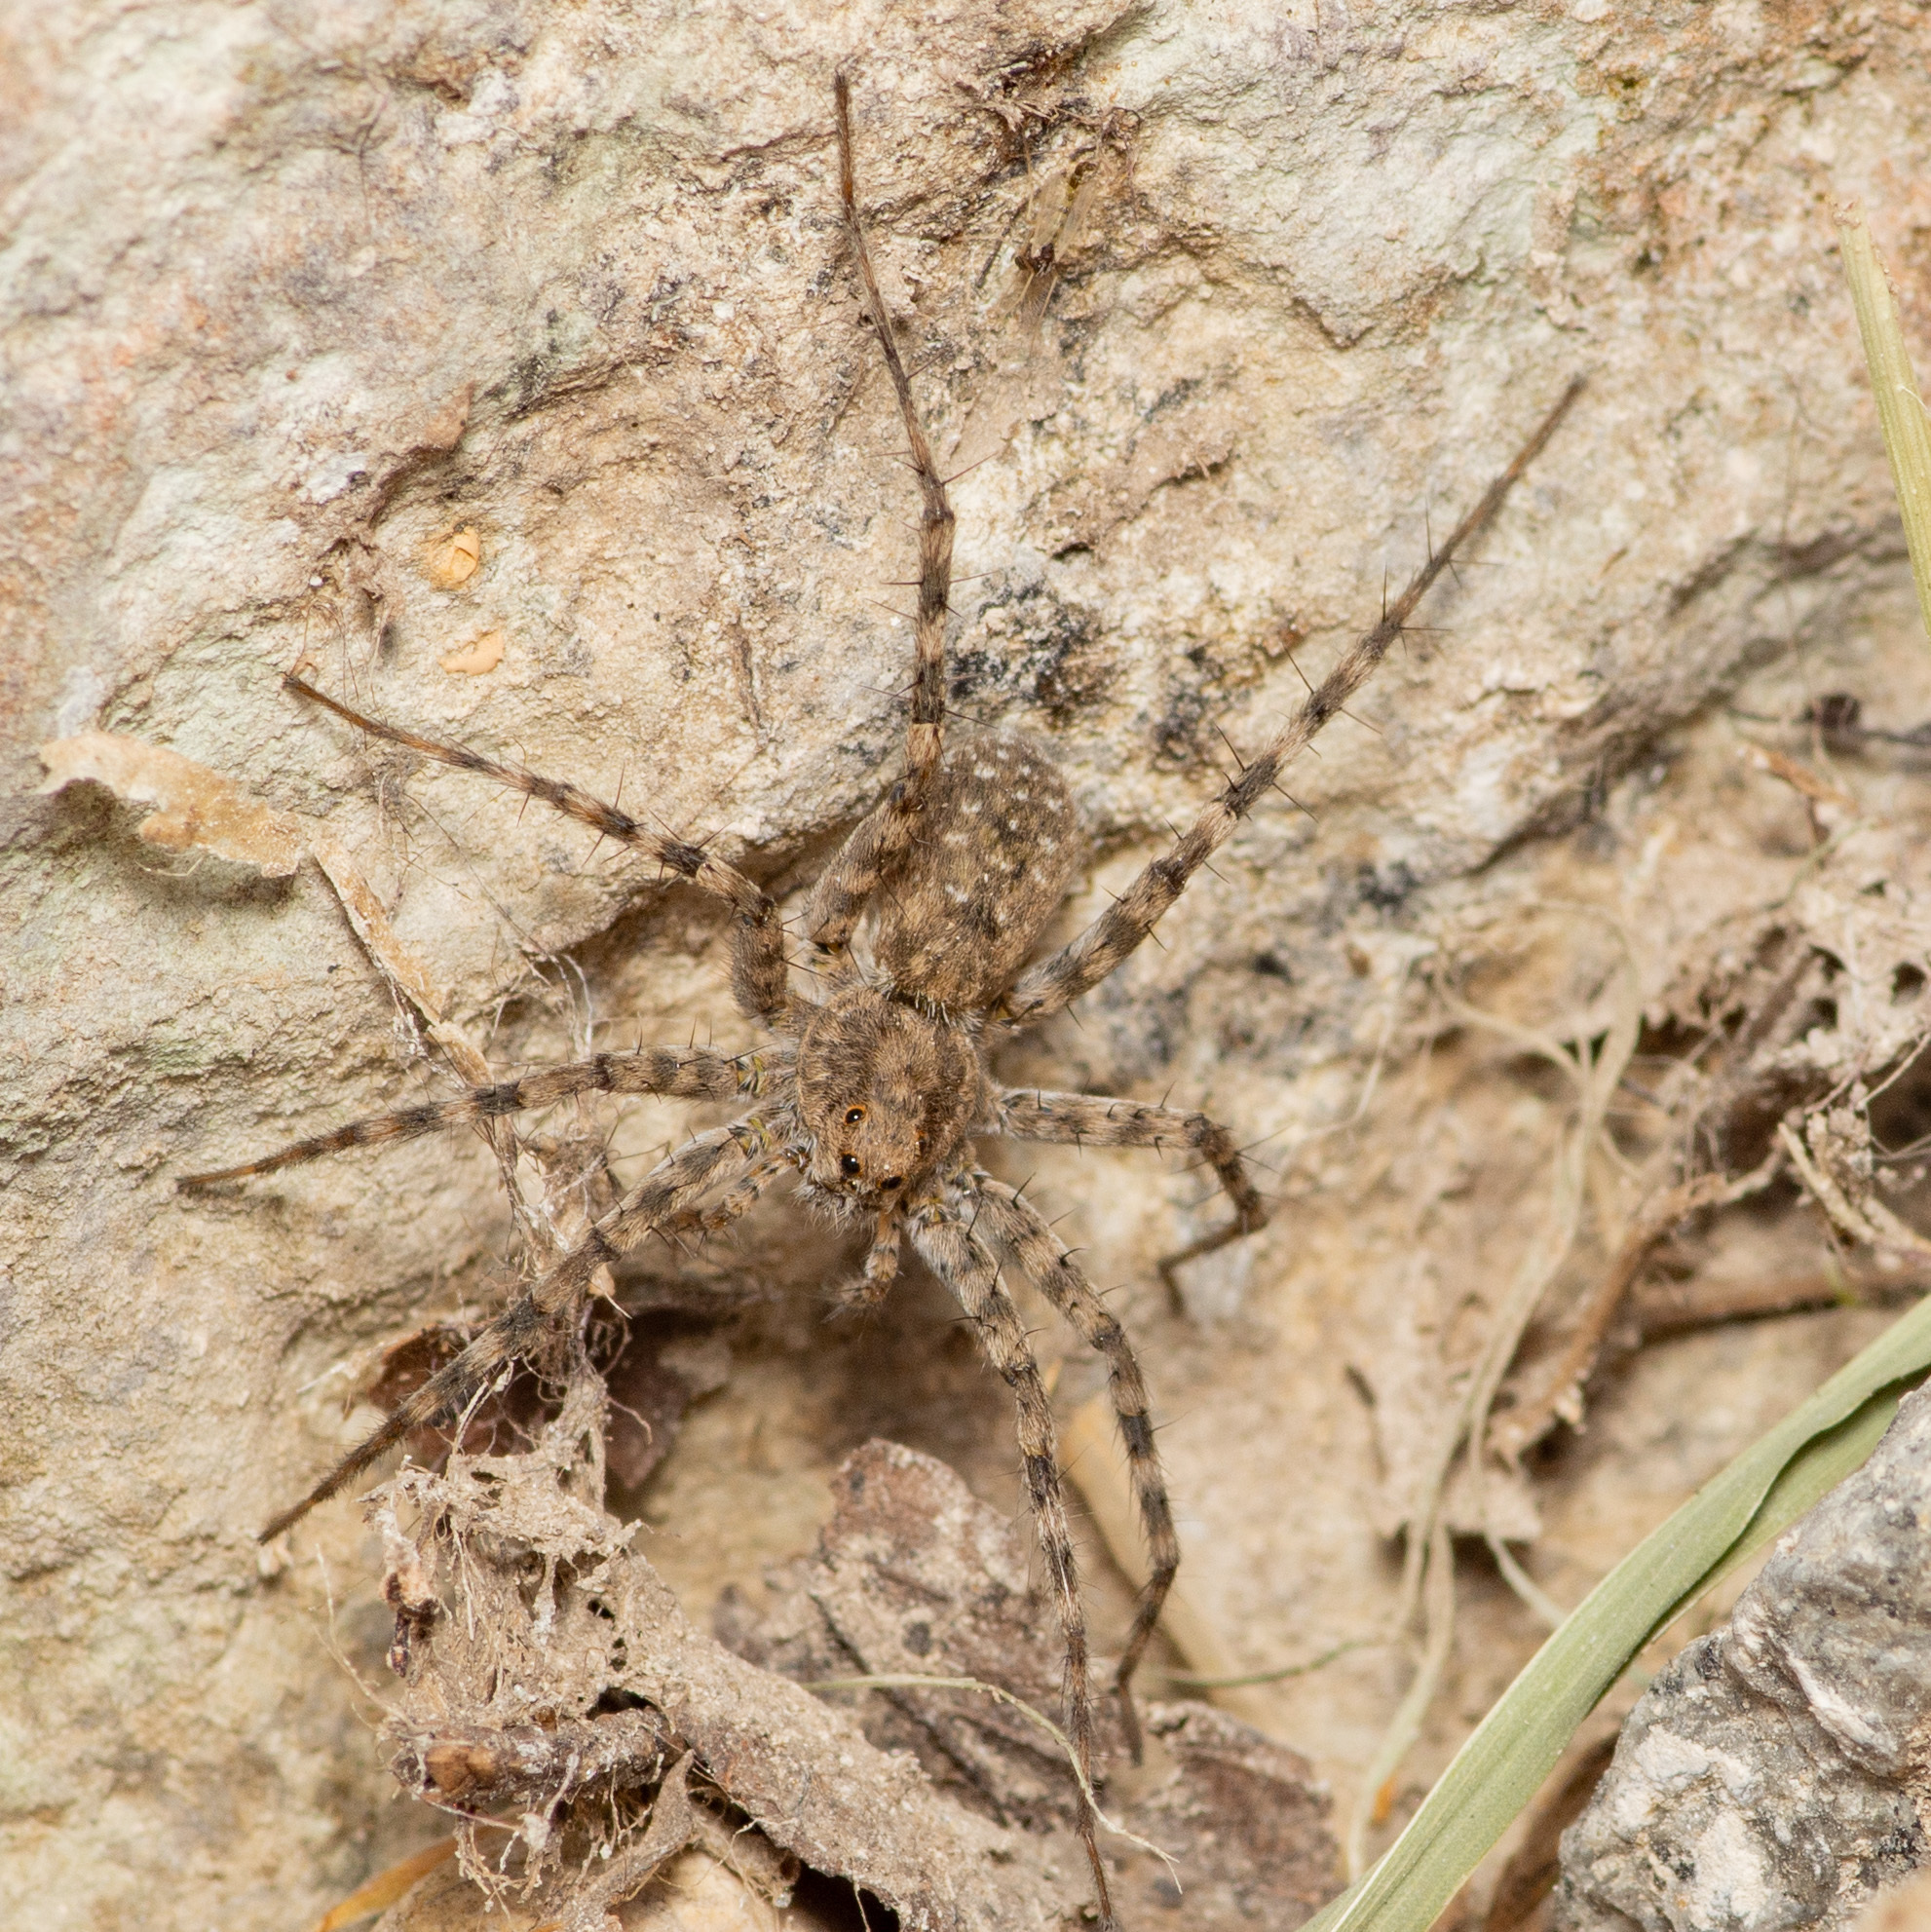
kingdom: Animalia
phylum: Arthropoda
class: Arachnida
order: Araneae
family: Lycosidae
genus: Pardosa
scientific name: Pardosa mercurialis
